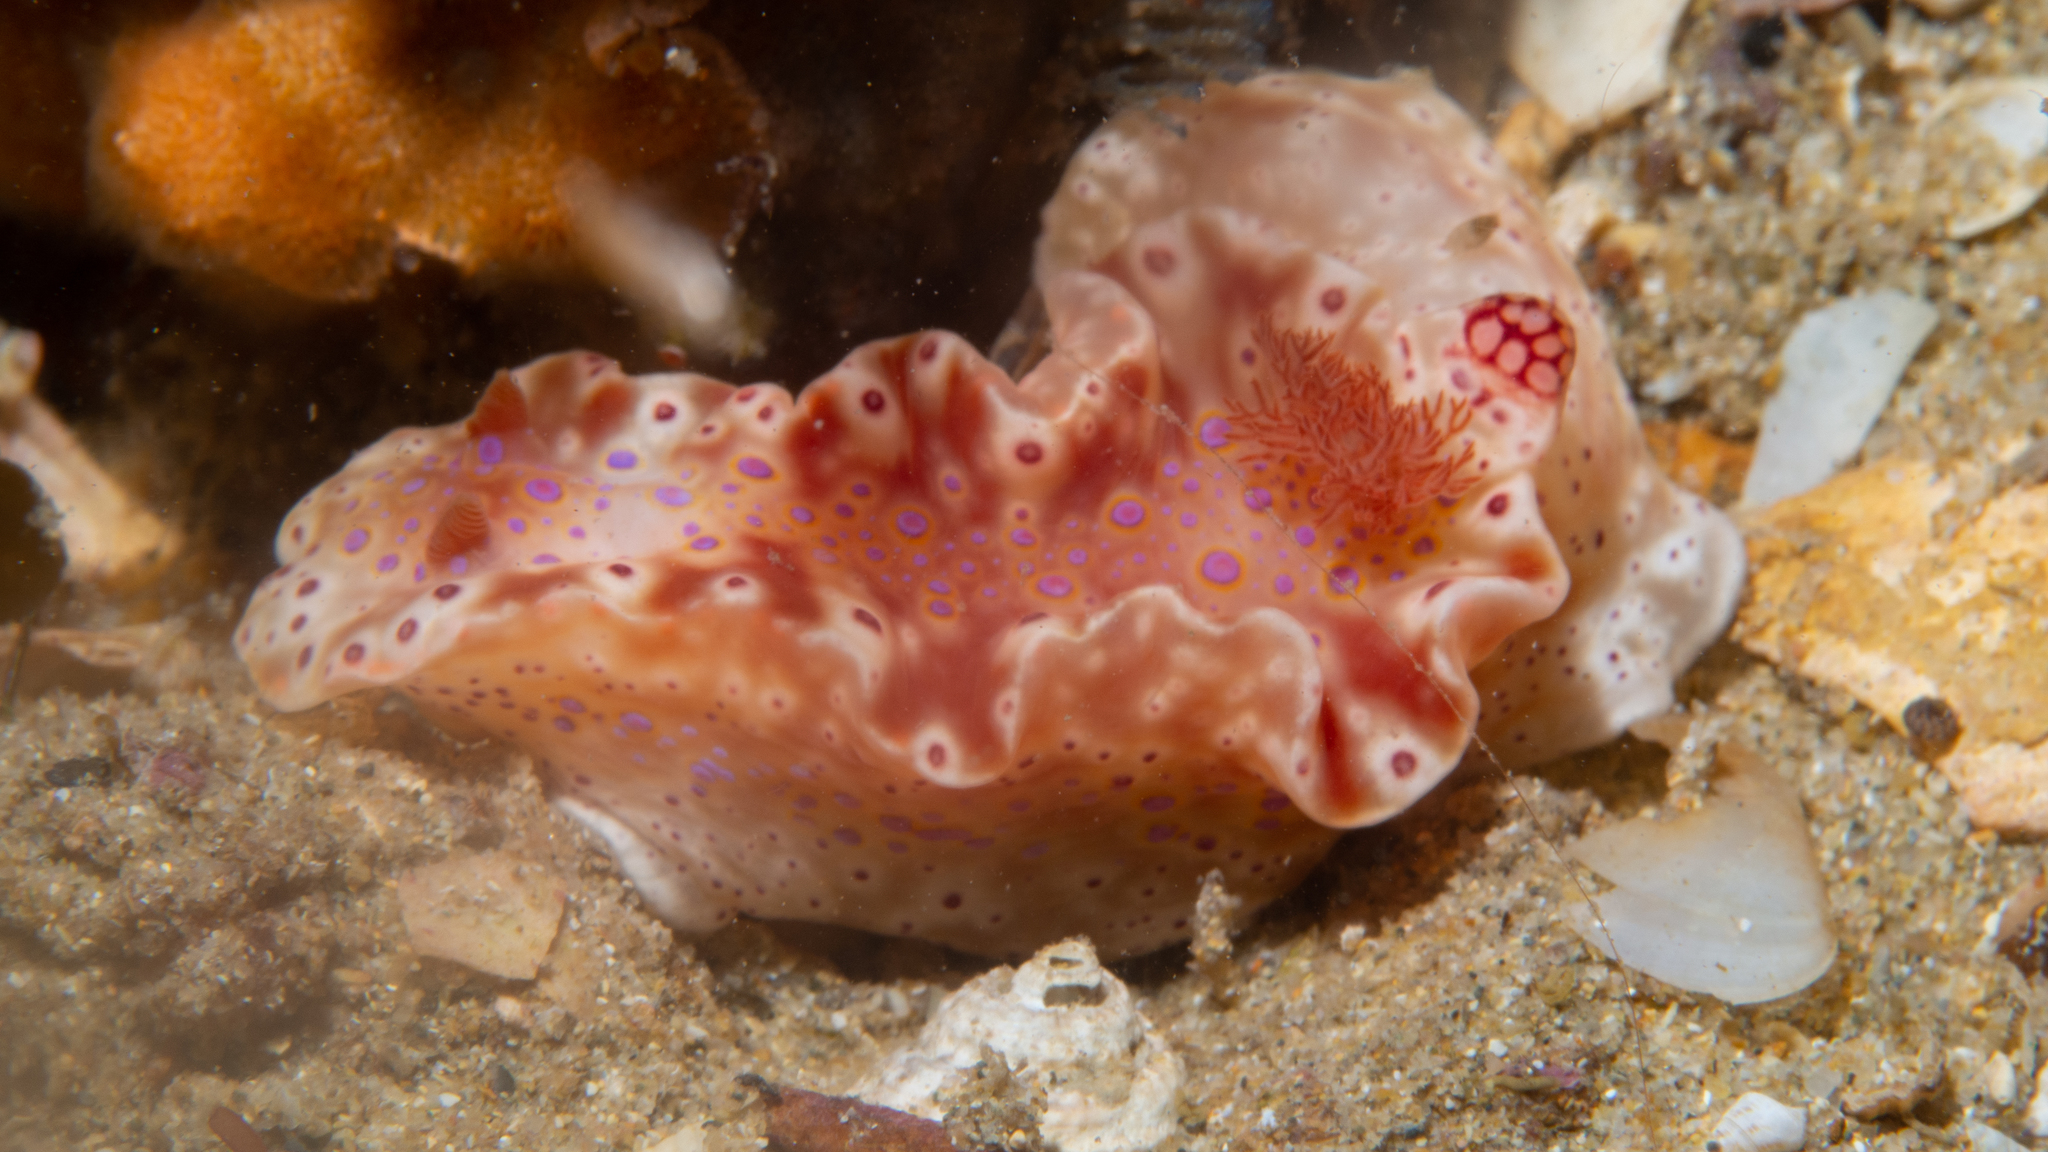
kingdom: Animalia
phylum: Mollusca
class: Gastropoda
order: Nudibranchia
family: Chromodorididae
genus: Ceratosoma
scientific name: Ceratosoma brevicaudatum
